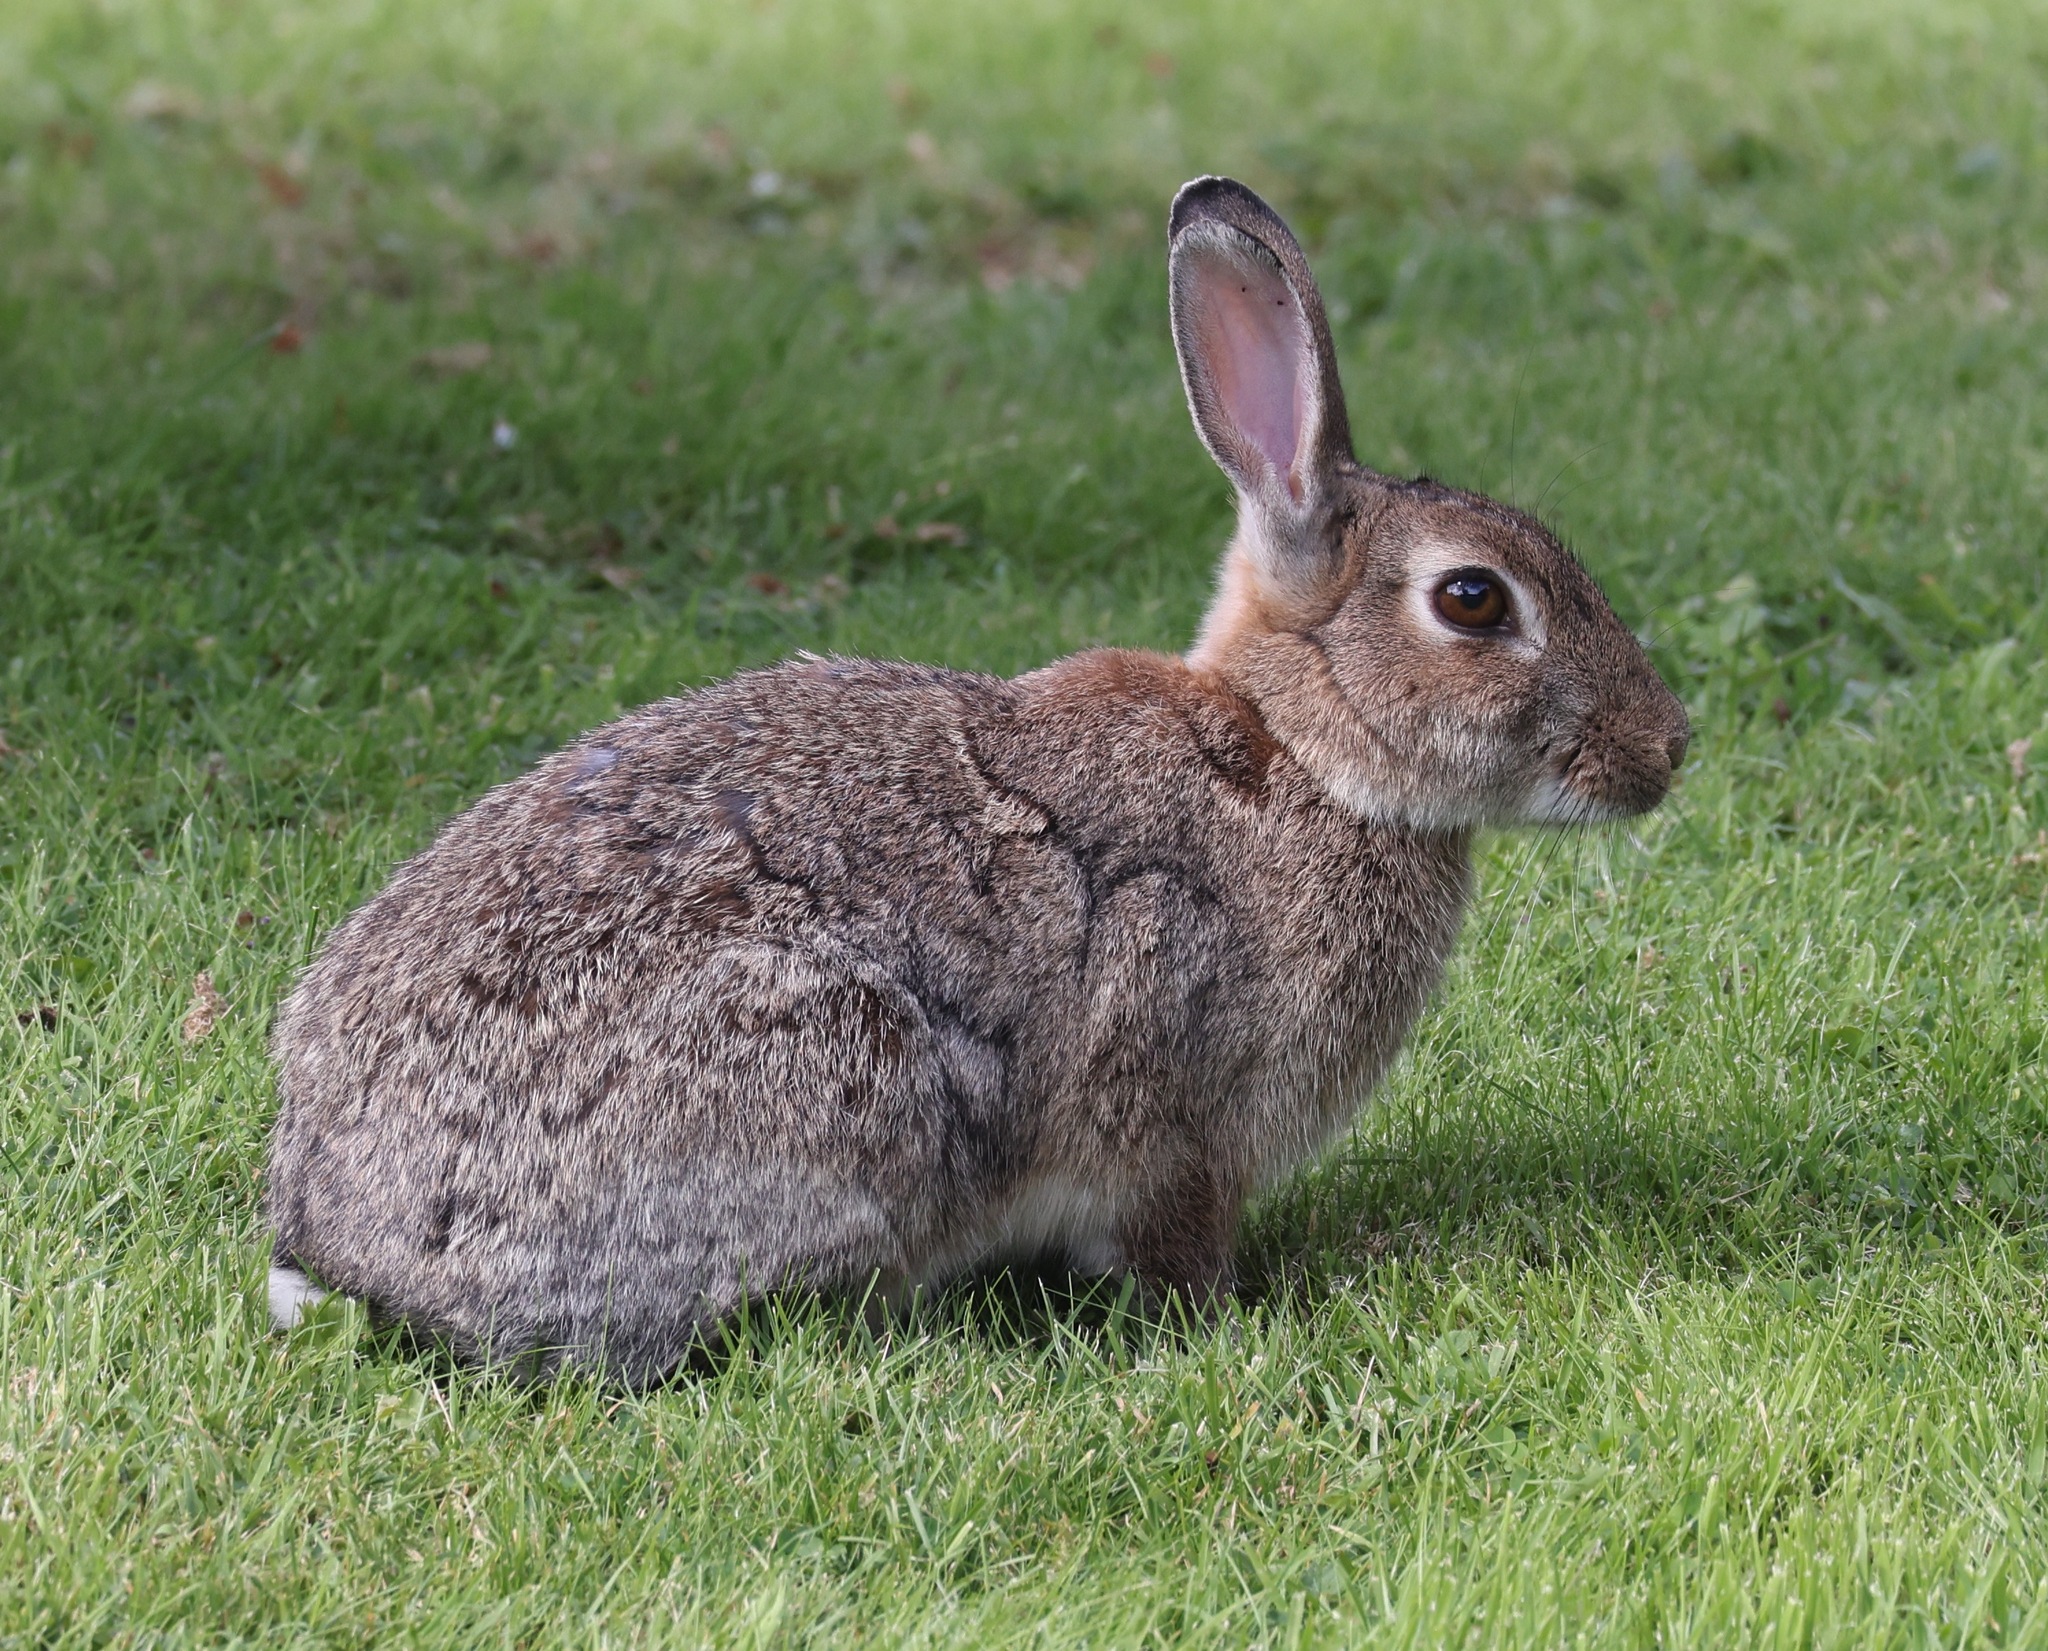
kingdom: Animalia
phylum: Chordata
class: Mammalia
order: Lagomorpha
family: Leporidae
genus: Oryctolagus
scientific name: Oryctolagus cuniculus
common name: European rabbit
